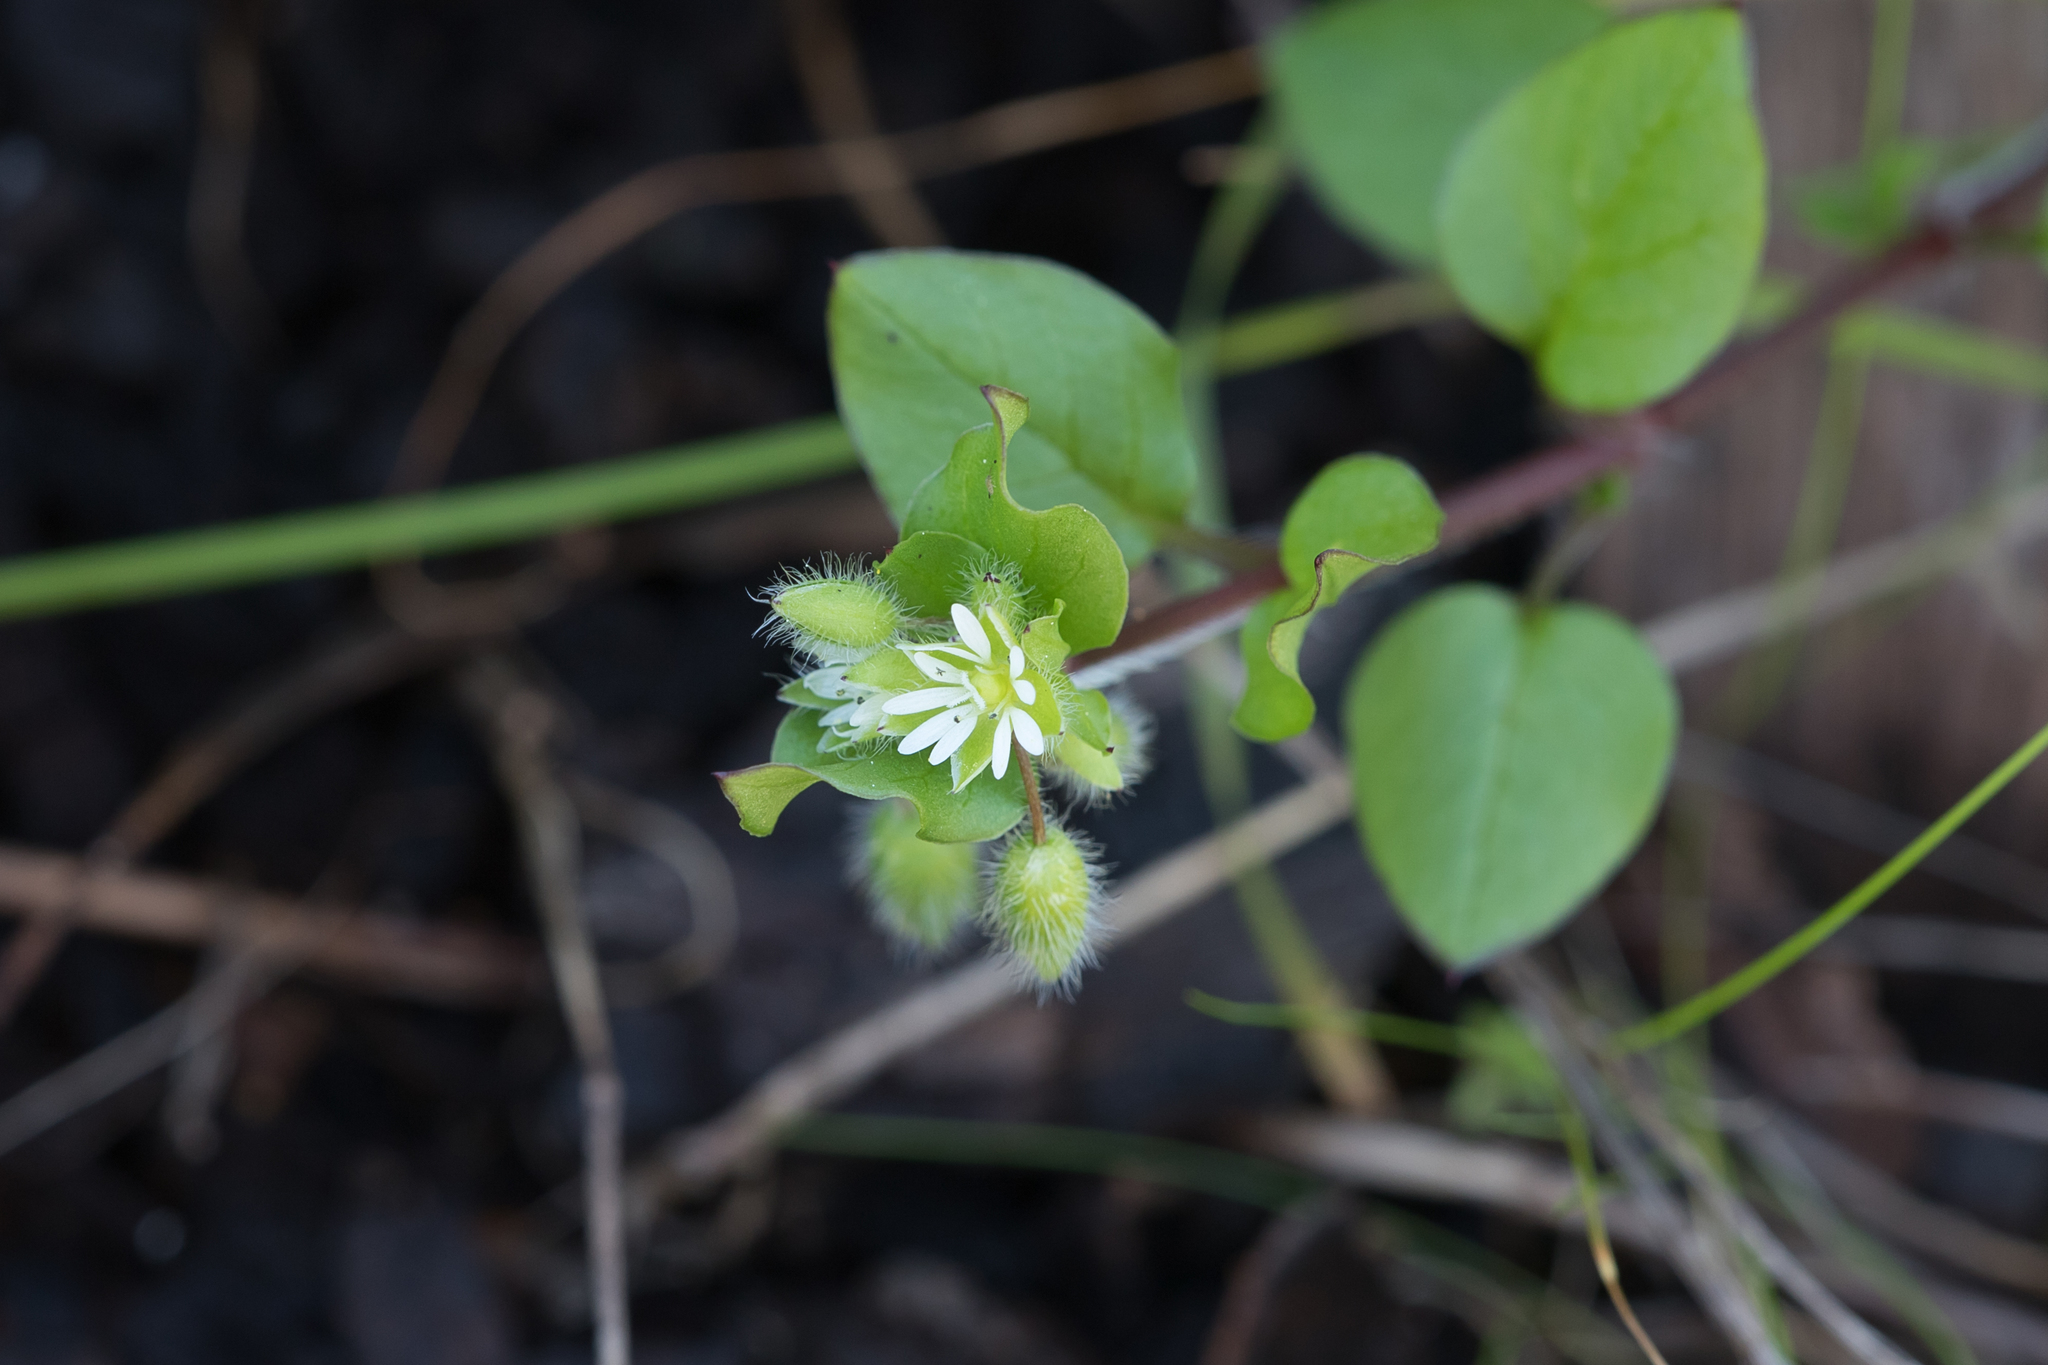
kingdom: Plantae
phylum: Tracheophyta
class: Magnoliopsida
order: Caryophyllales
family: Caryophyllaceae
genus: Stellaria
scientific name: Stellaria media
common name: Common chickweed
